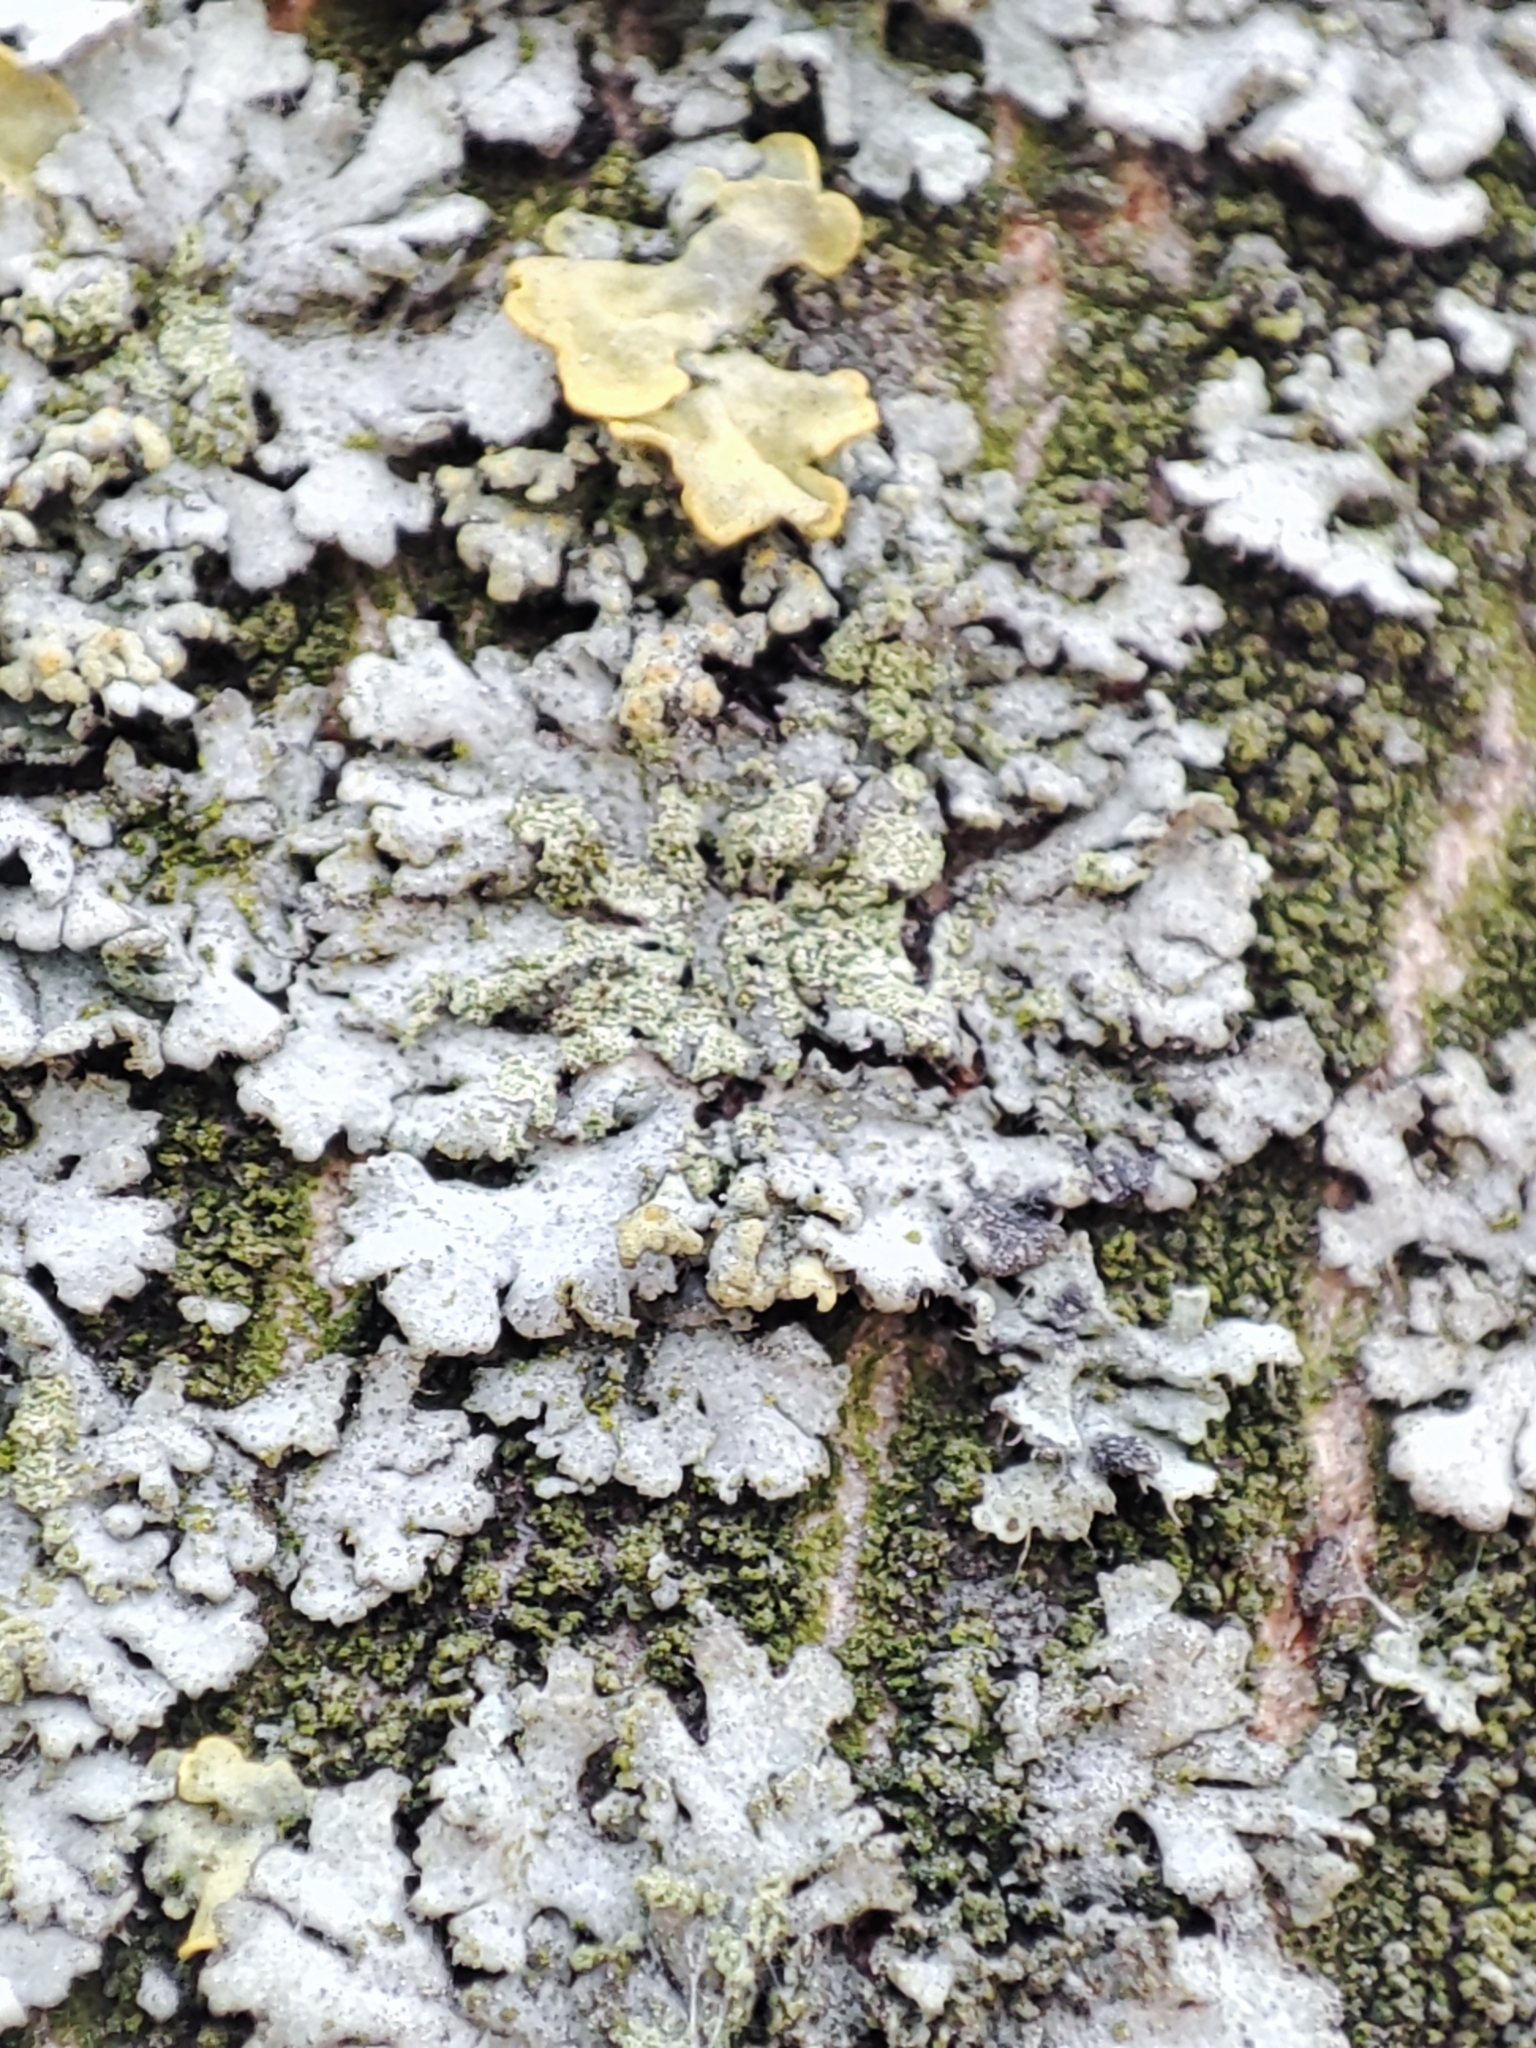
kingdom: Fungi
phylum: Ascomycota
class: Lecanoromycetes
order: Caliciales
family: Physciaceae
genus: Phaeophyscia
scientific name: Phaeophyscia orbicularis
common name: Mealy shadow lichen
